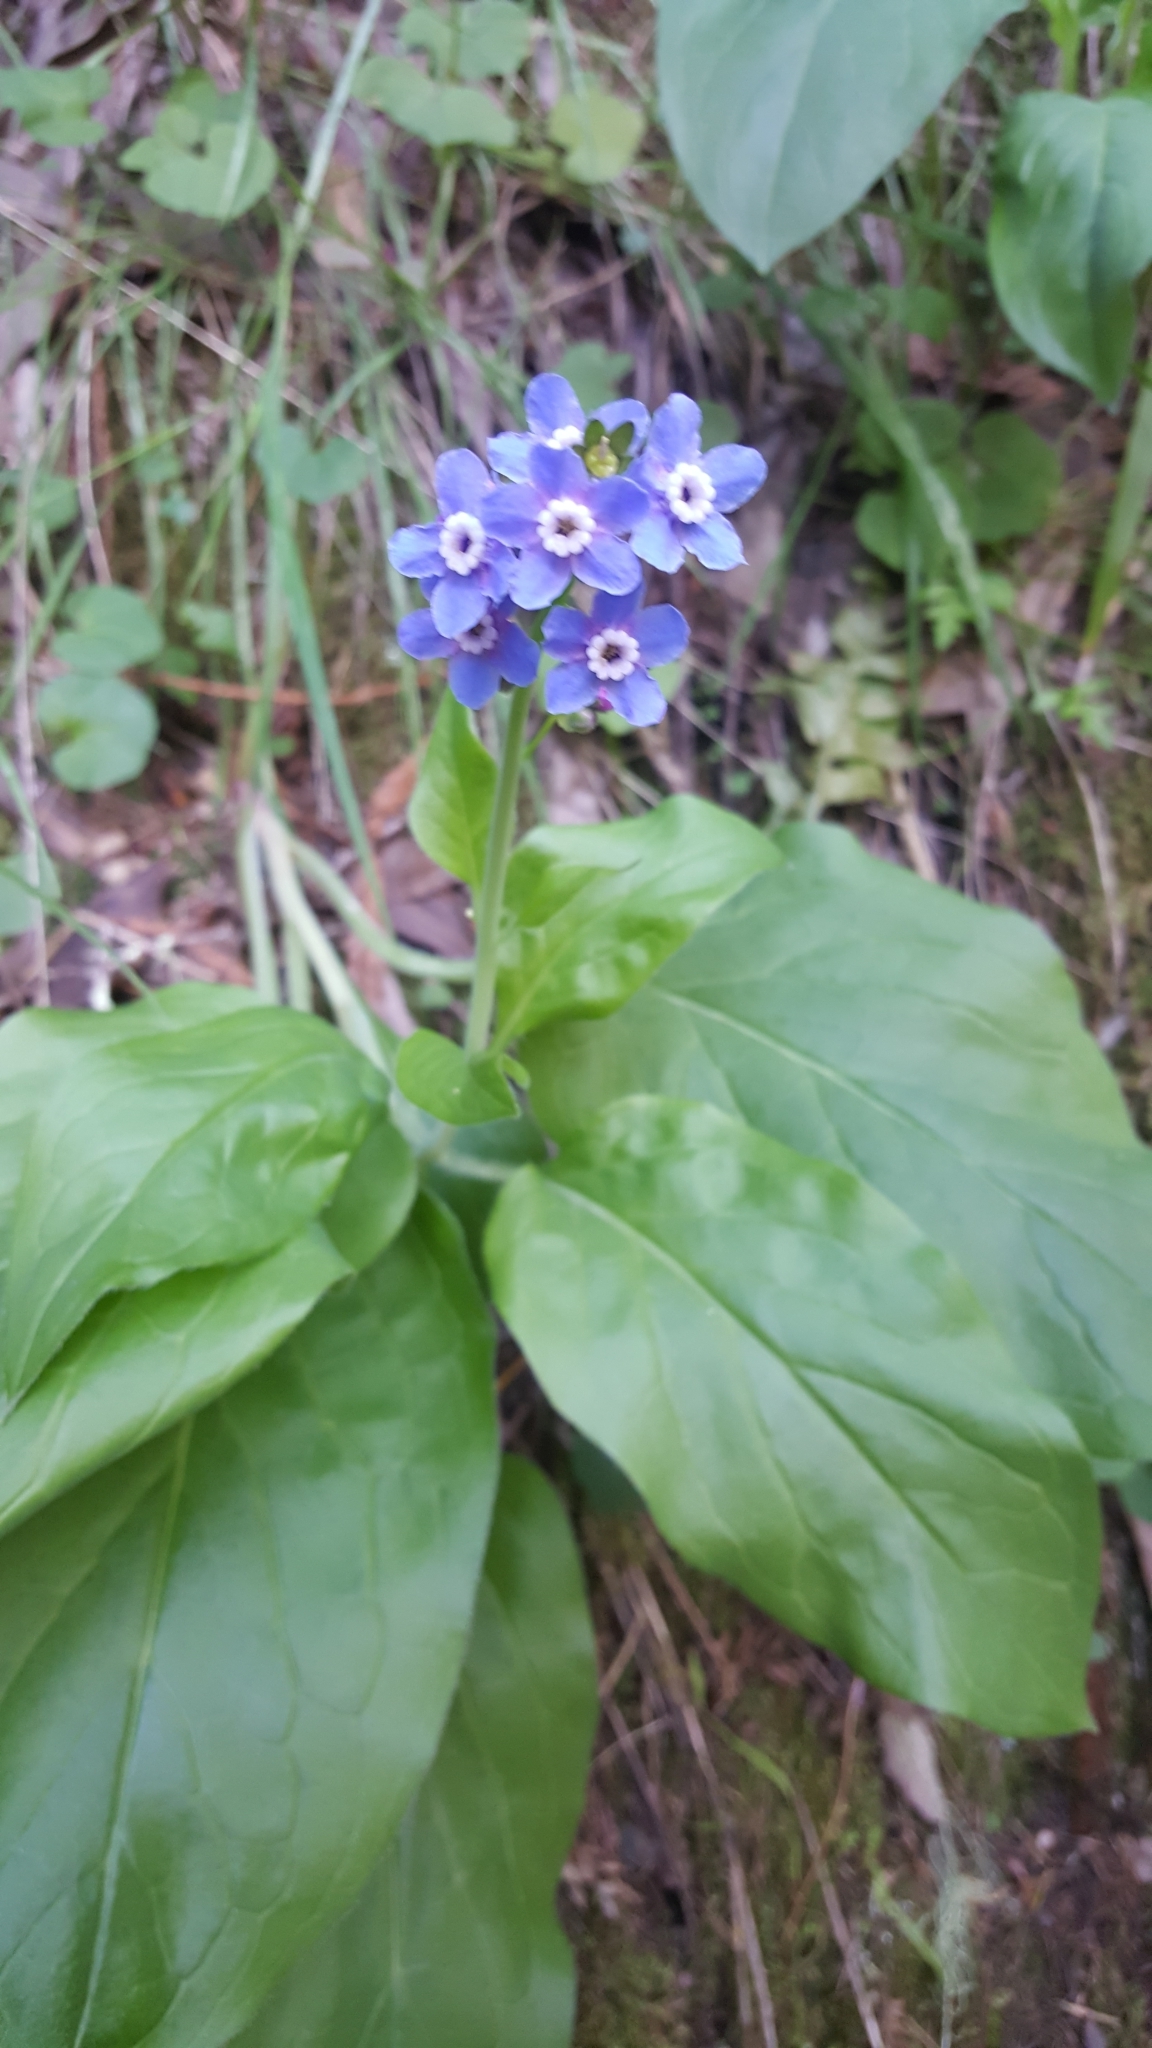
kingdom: Plantae
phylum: Tracheophyta
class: Magnoliopsida
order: Boraginales
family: Boraginaceae
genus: Adelinia
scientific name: Adelinia grande
